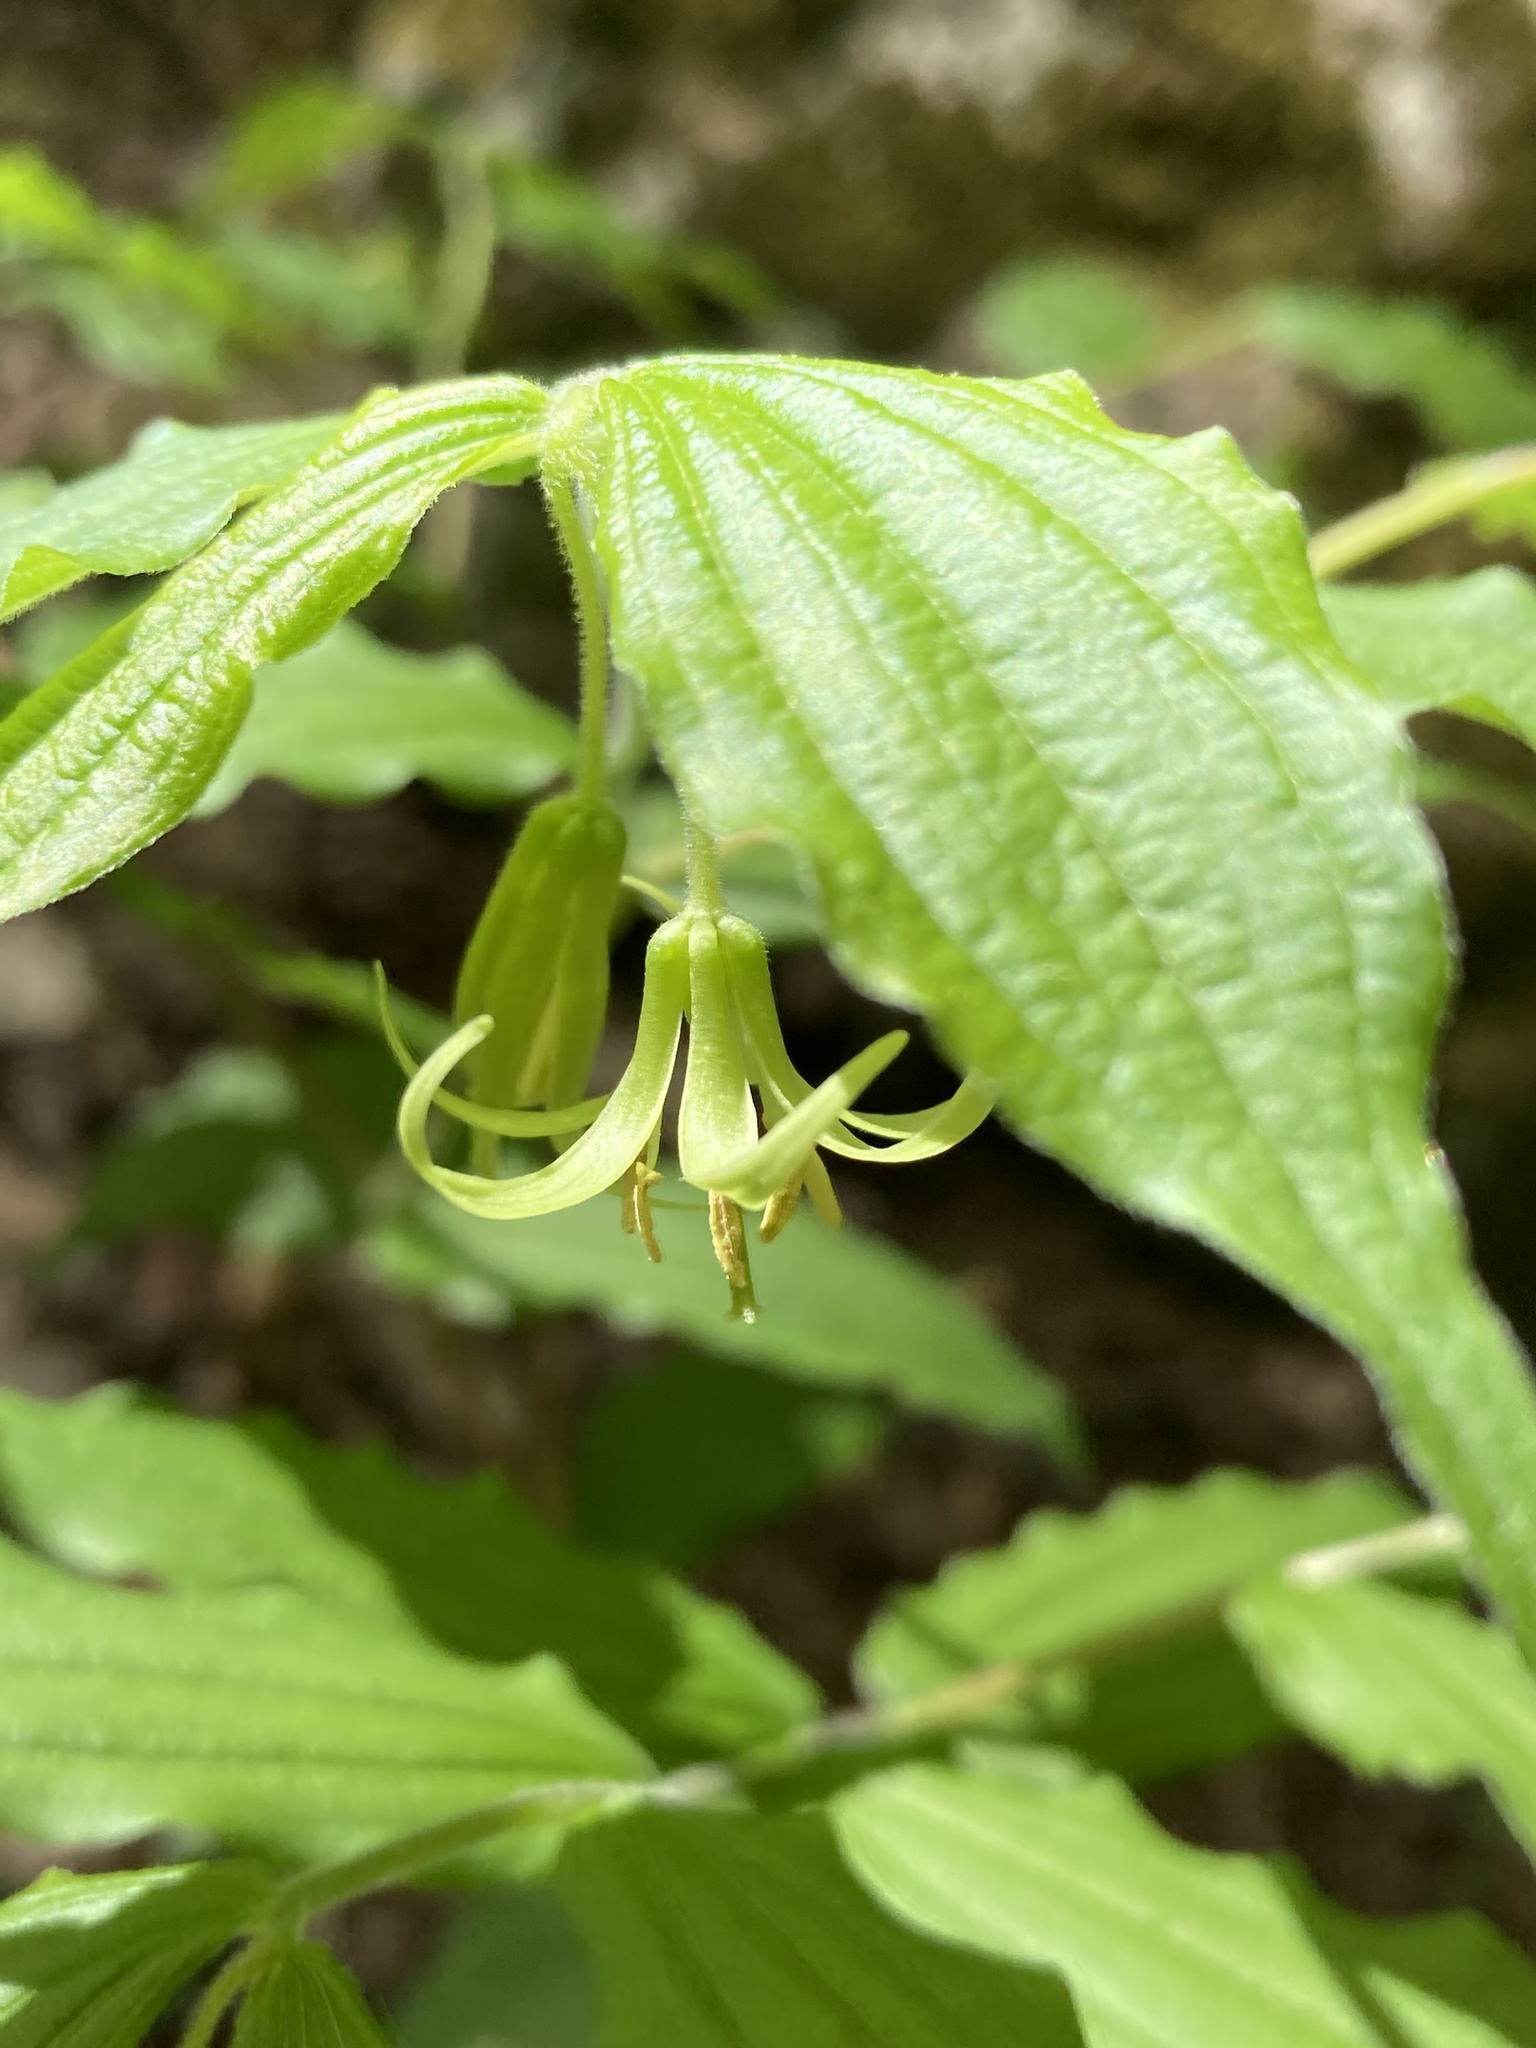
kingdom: Plantae
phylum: Tracheophyta
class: Liliopsida
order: Liliales
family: Liliaceae
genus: Prosartes
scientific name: Prosartes lanuginosa
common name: Hairy mandarin
